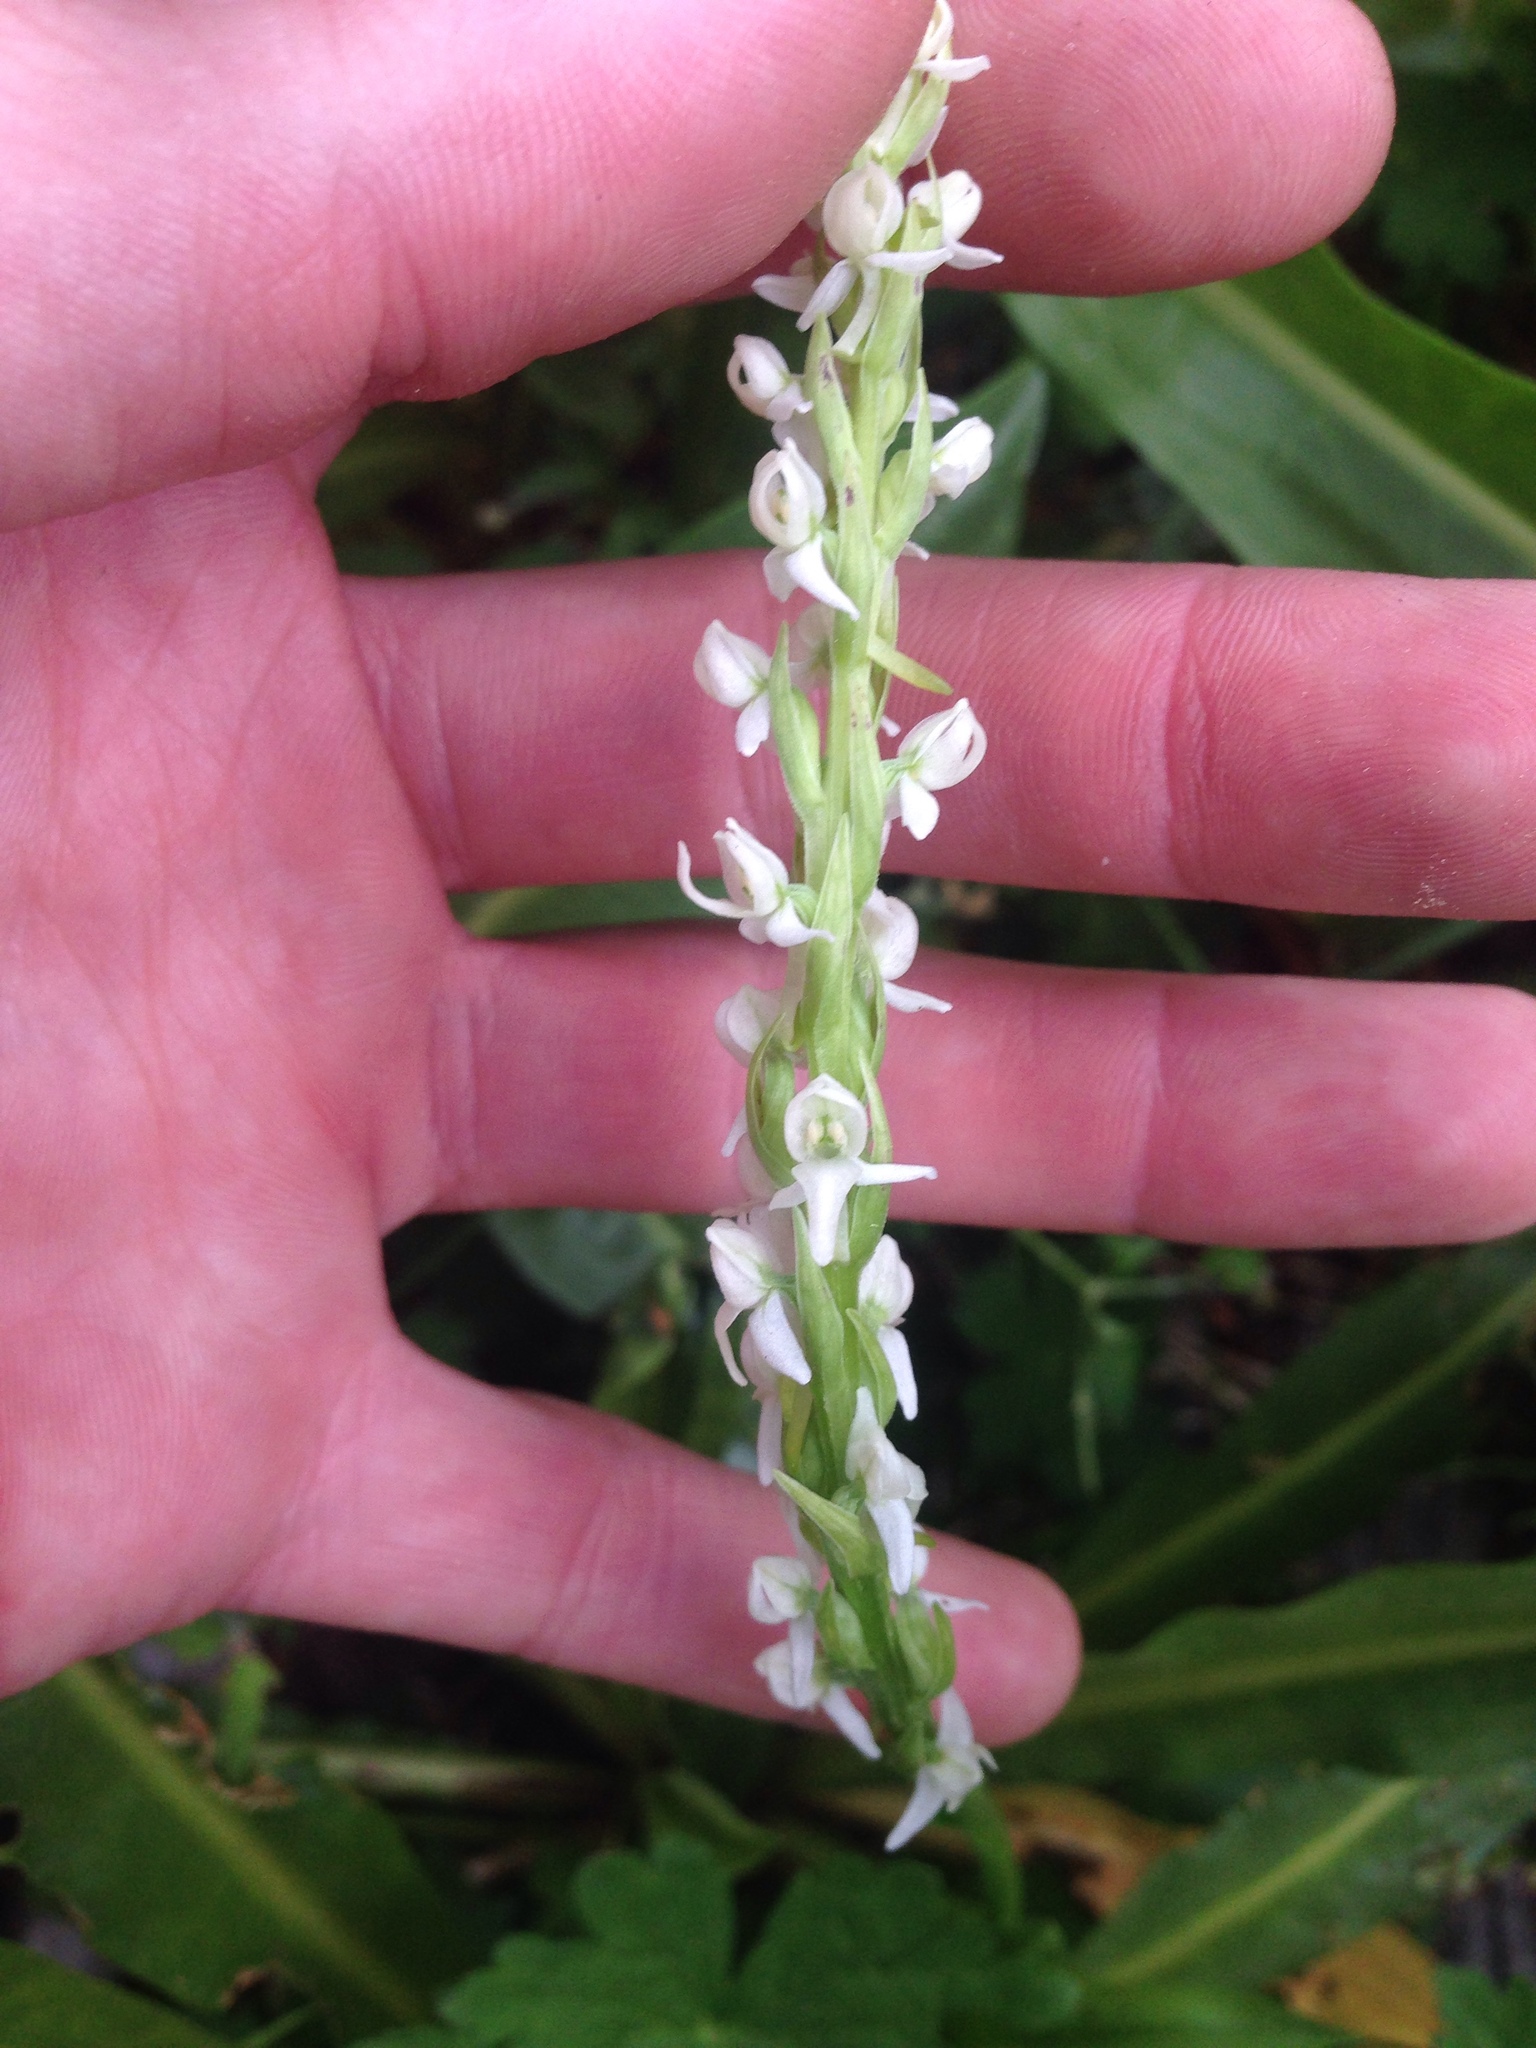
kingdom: Plantae
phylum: Tracheophyta
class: Liliopsida
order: Asparagales
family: Orchidaceae
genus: Platanthera
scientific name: Platanthera dilatata
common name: Bog candles
